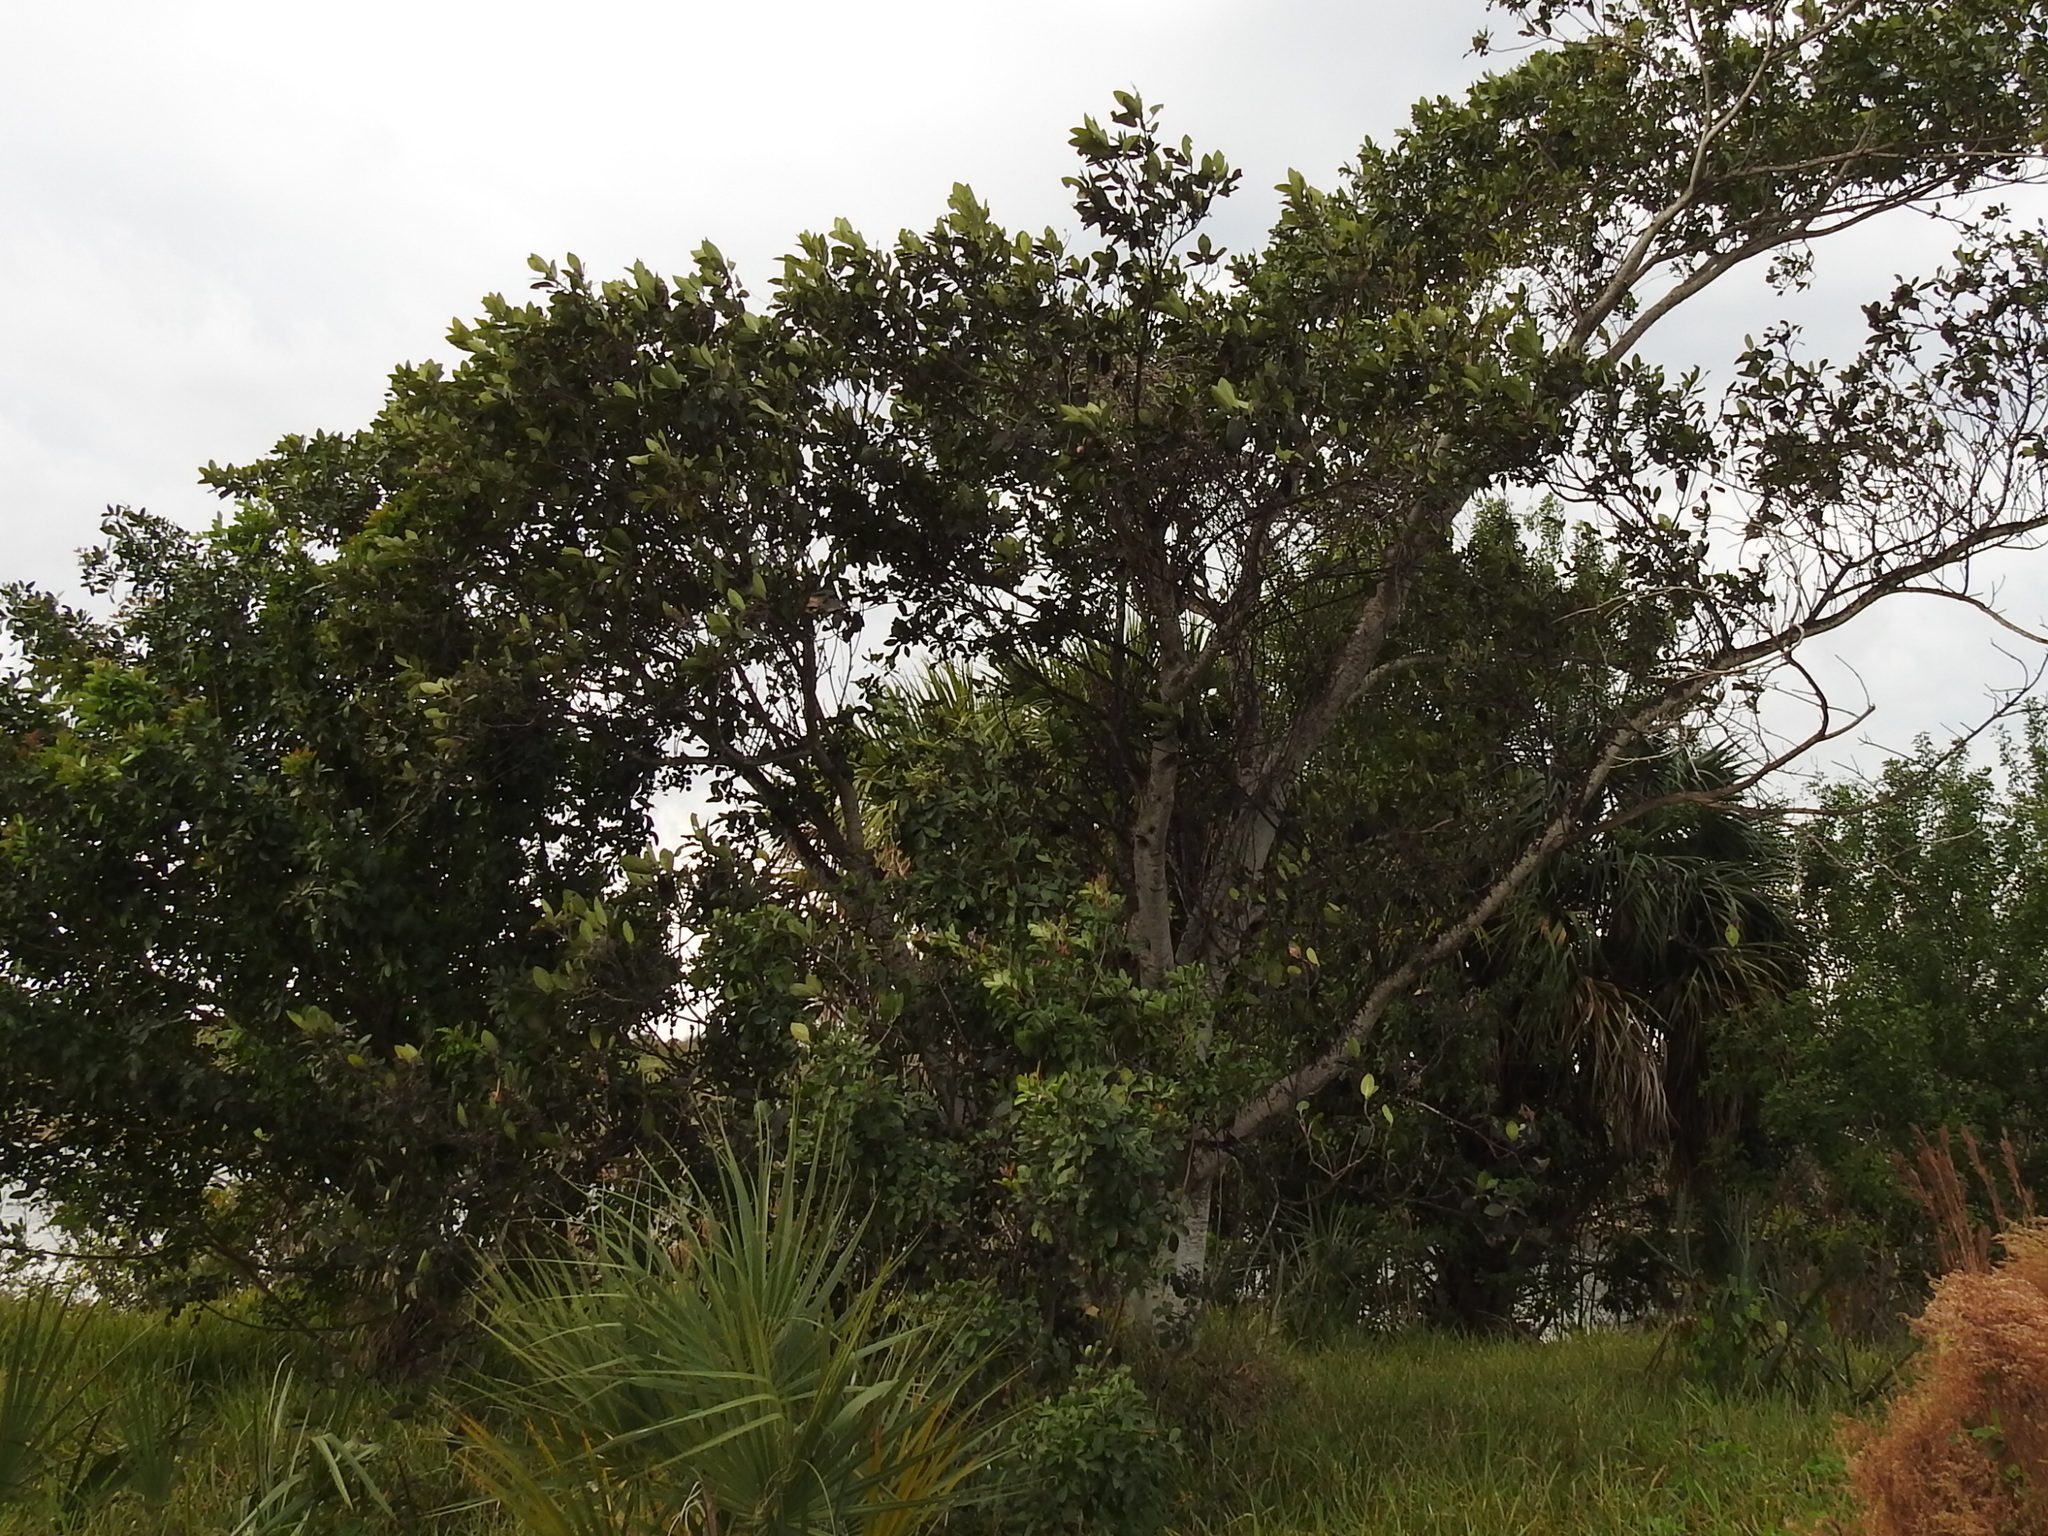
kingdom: Plantae
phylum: Tracheophyta
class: Magnoliopsida
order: Aquifoliales
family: Aquifoliaceae
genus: Ilex
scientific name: Ilex cassine
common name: Dahoon
